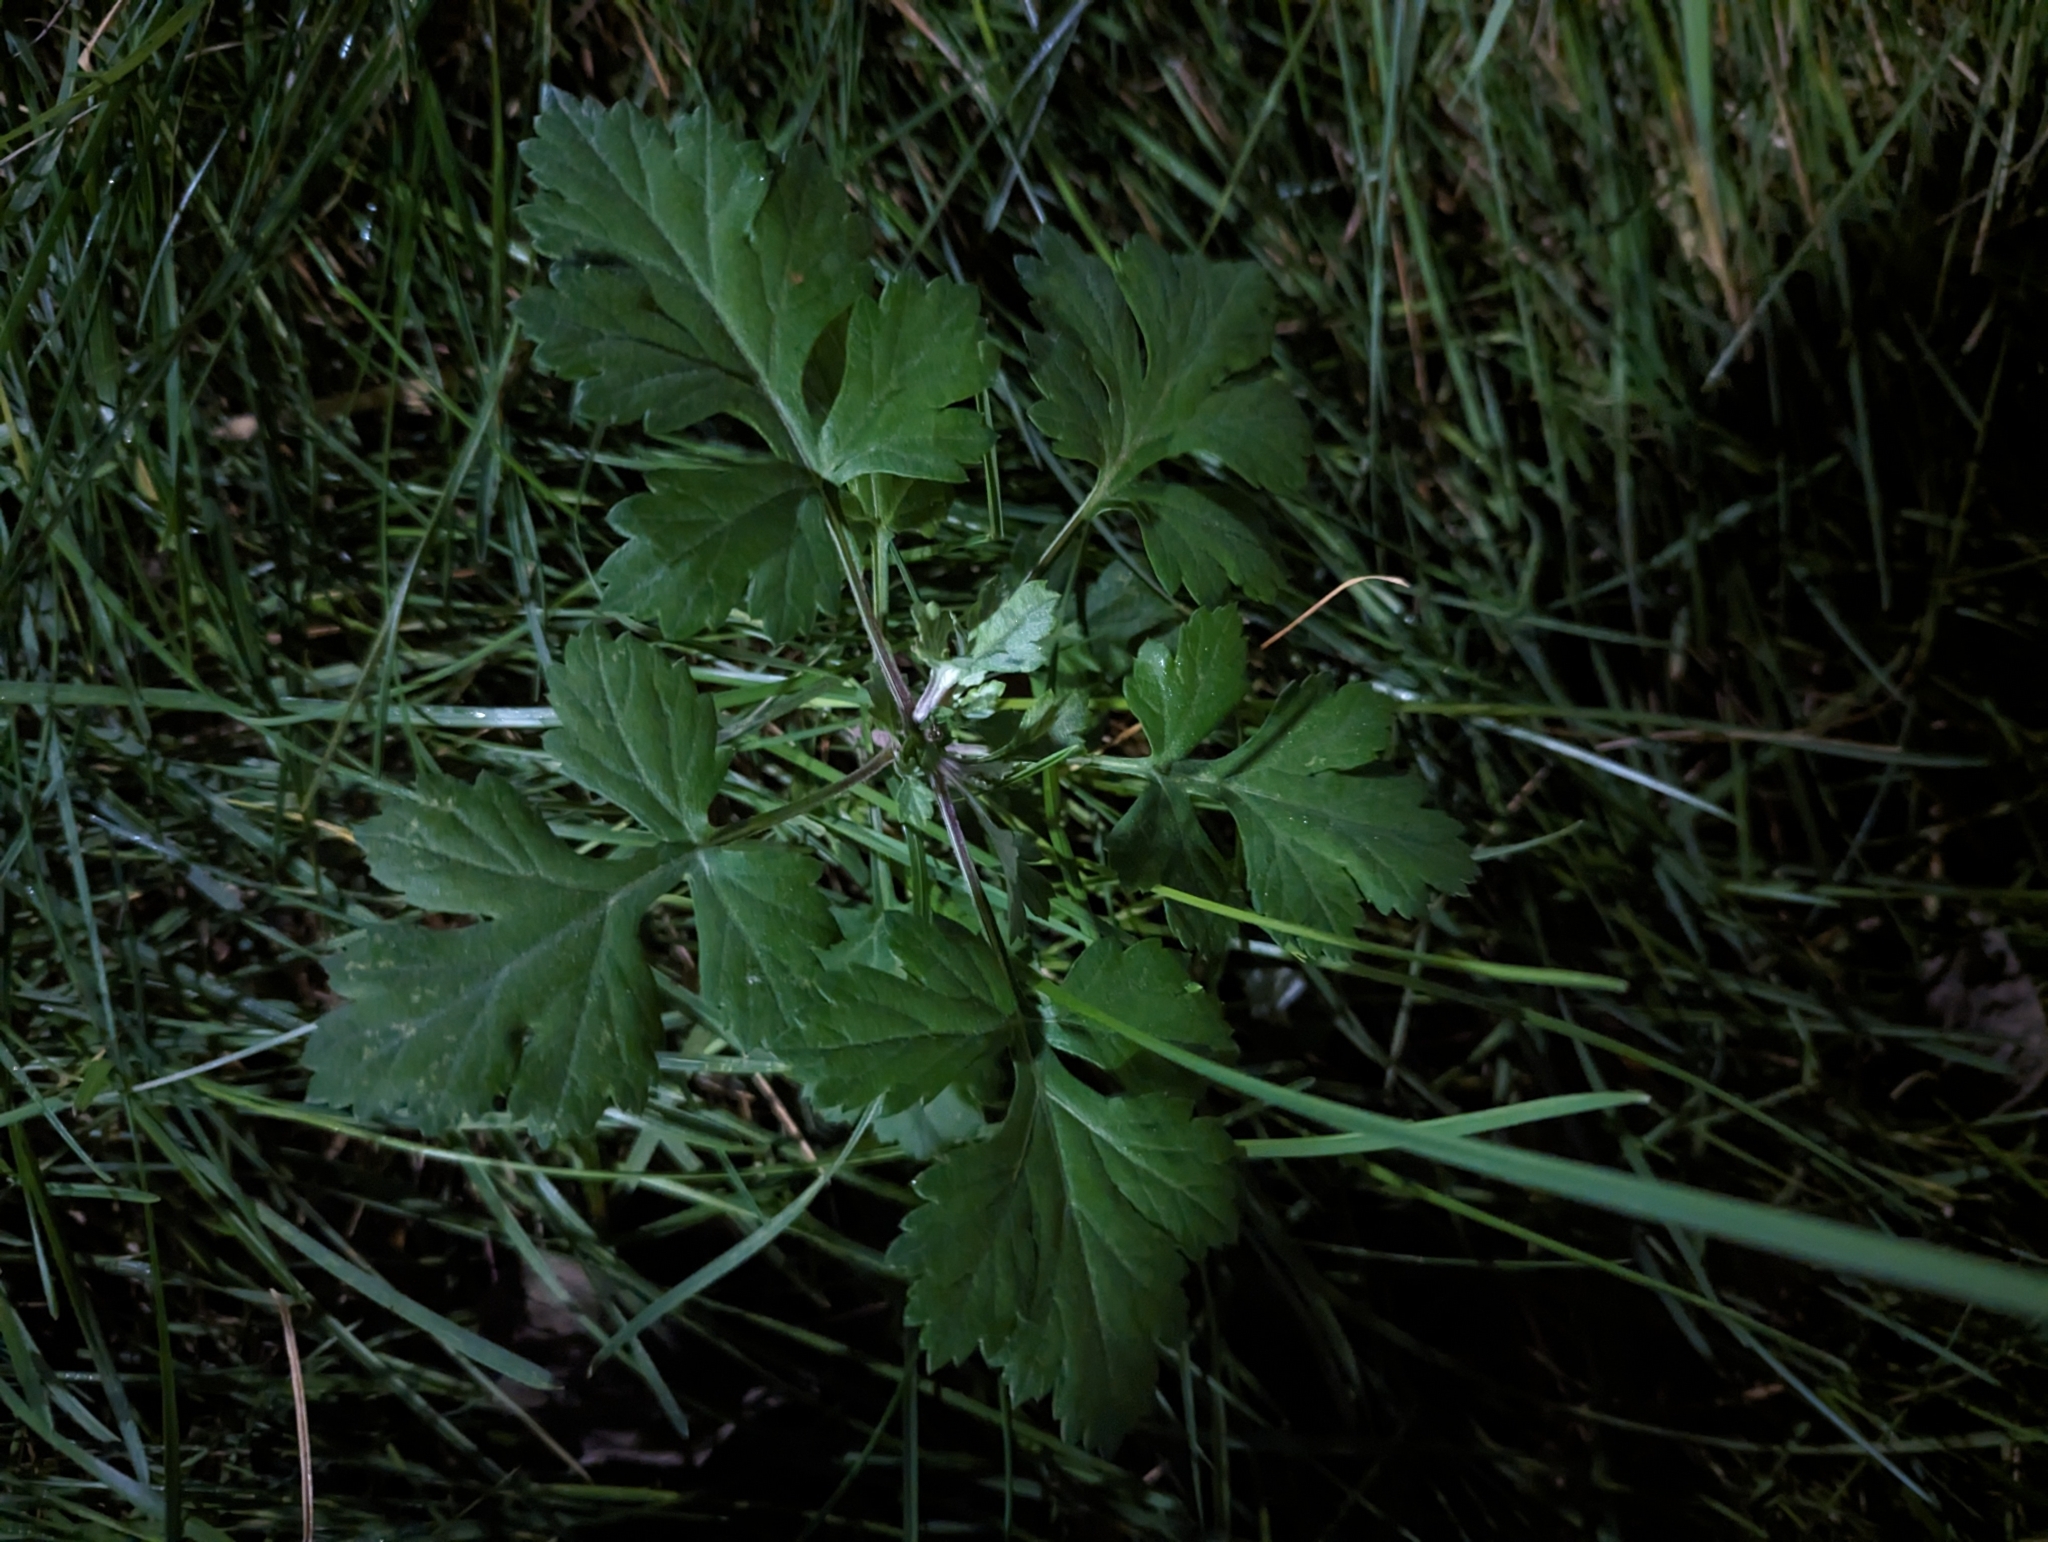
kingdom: Plantae
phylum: Tracheophyta
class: Magnoliopsida
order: Asterales
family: Asteraceae
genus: Artemisia
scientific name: Artemisia vulgaris
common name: Mugwort
